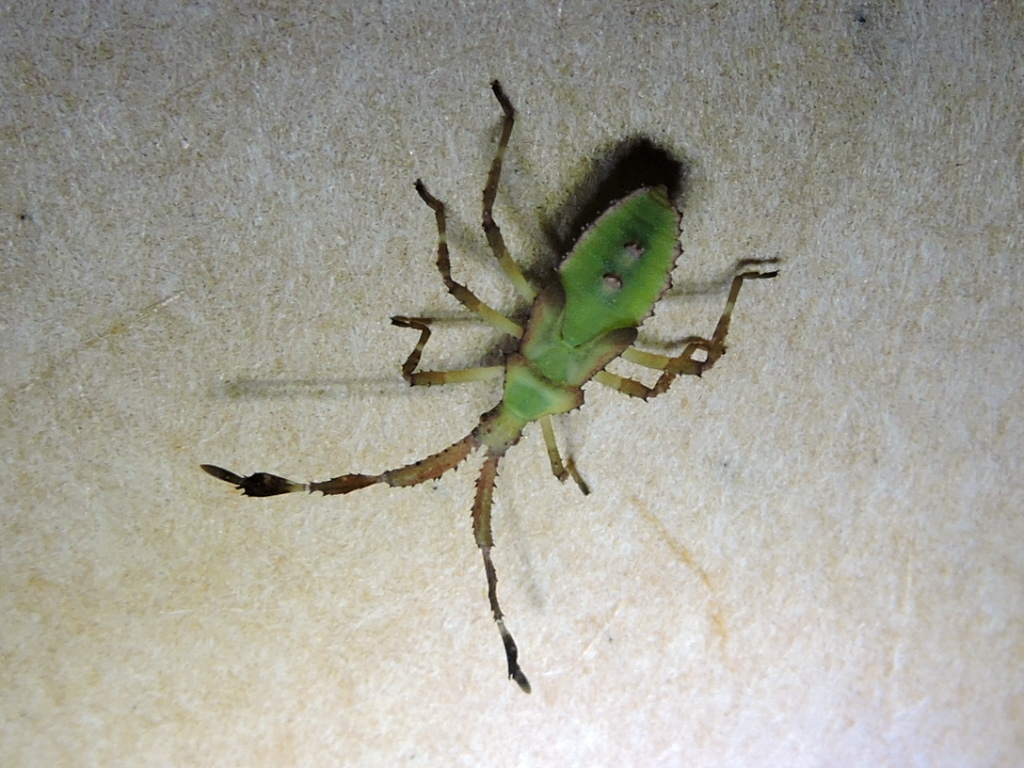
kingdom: Animalia
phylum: Arthropoda
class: Insecta
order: Hemiptera
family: Coreidae
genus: Chariesterus
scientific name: Chariesterus antennator
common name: Flat horned coreid
